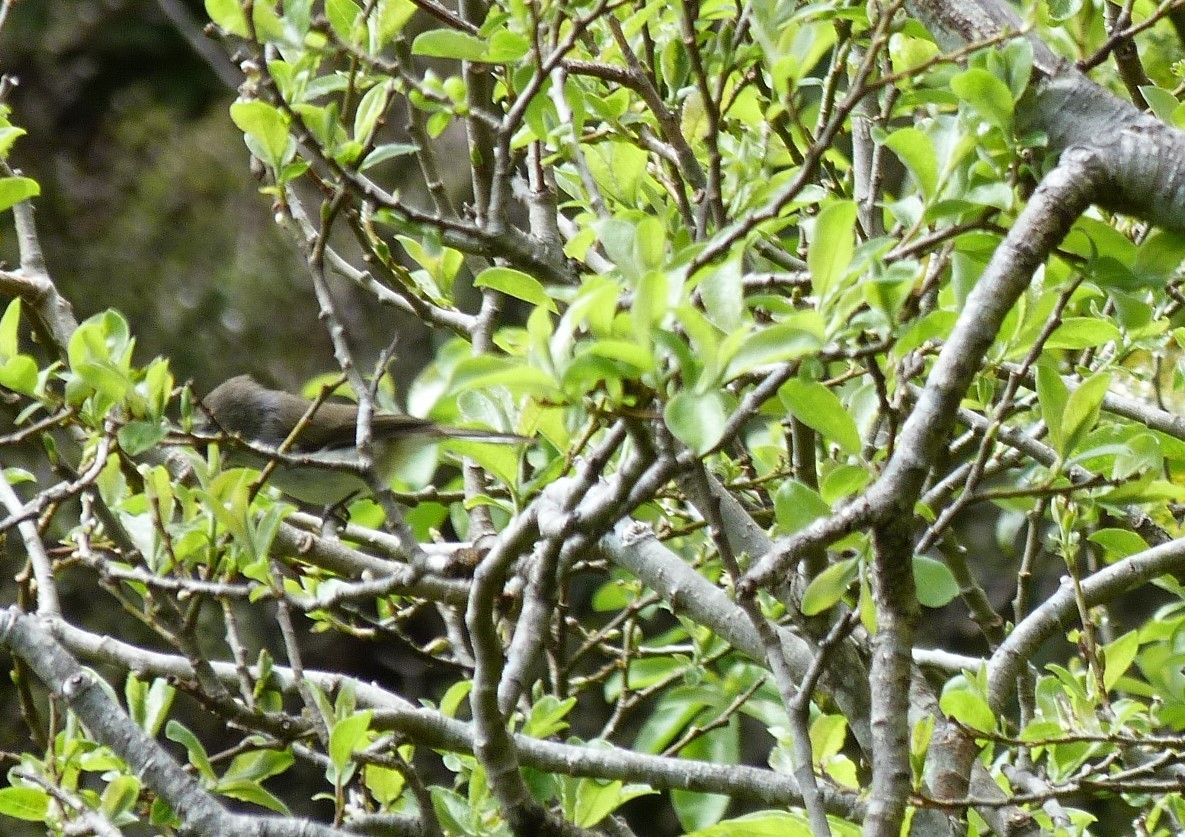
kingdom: Animalia
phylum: Chordata
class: Aves
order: Passeriformes
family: Acanthizidae
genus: Gerygone
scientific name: Gerygone igata
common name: Grey gerygone
